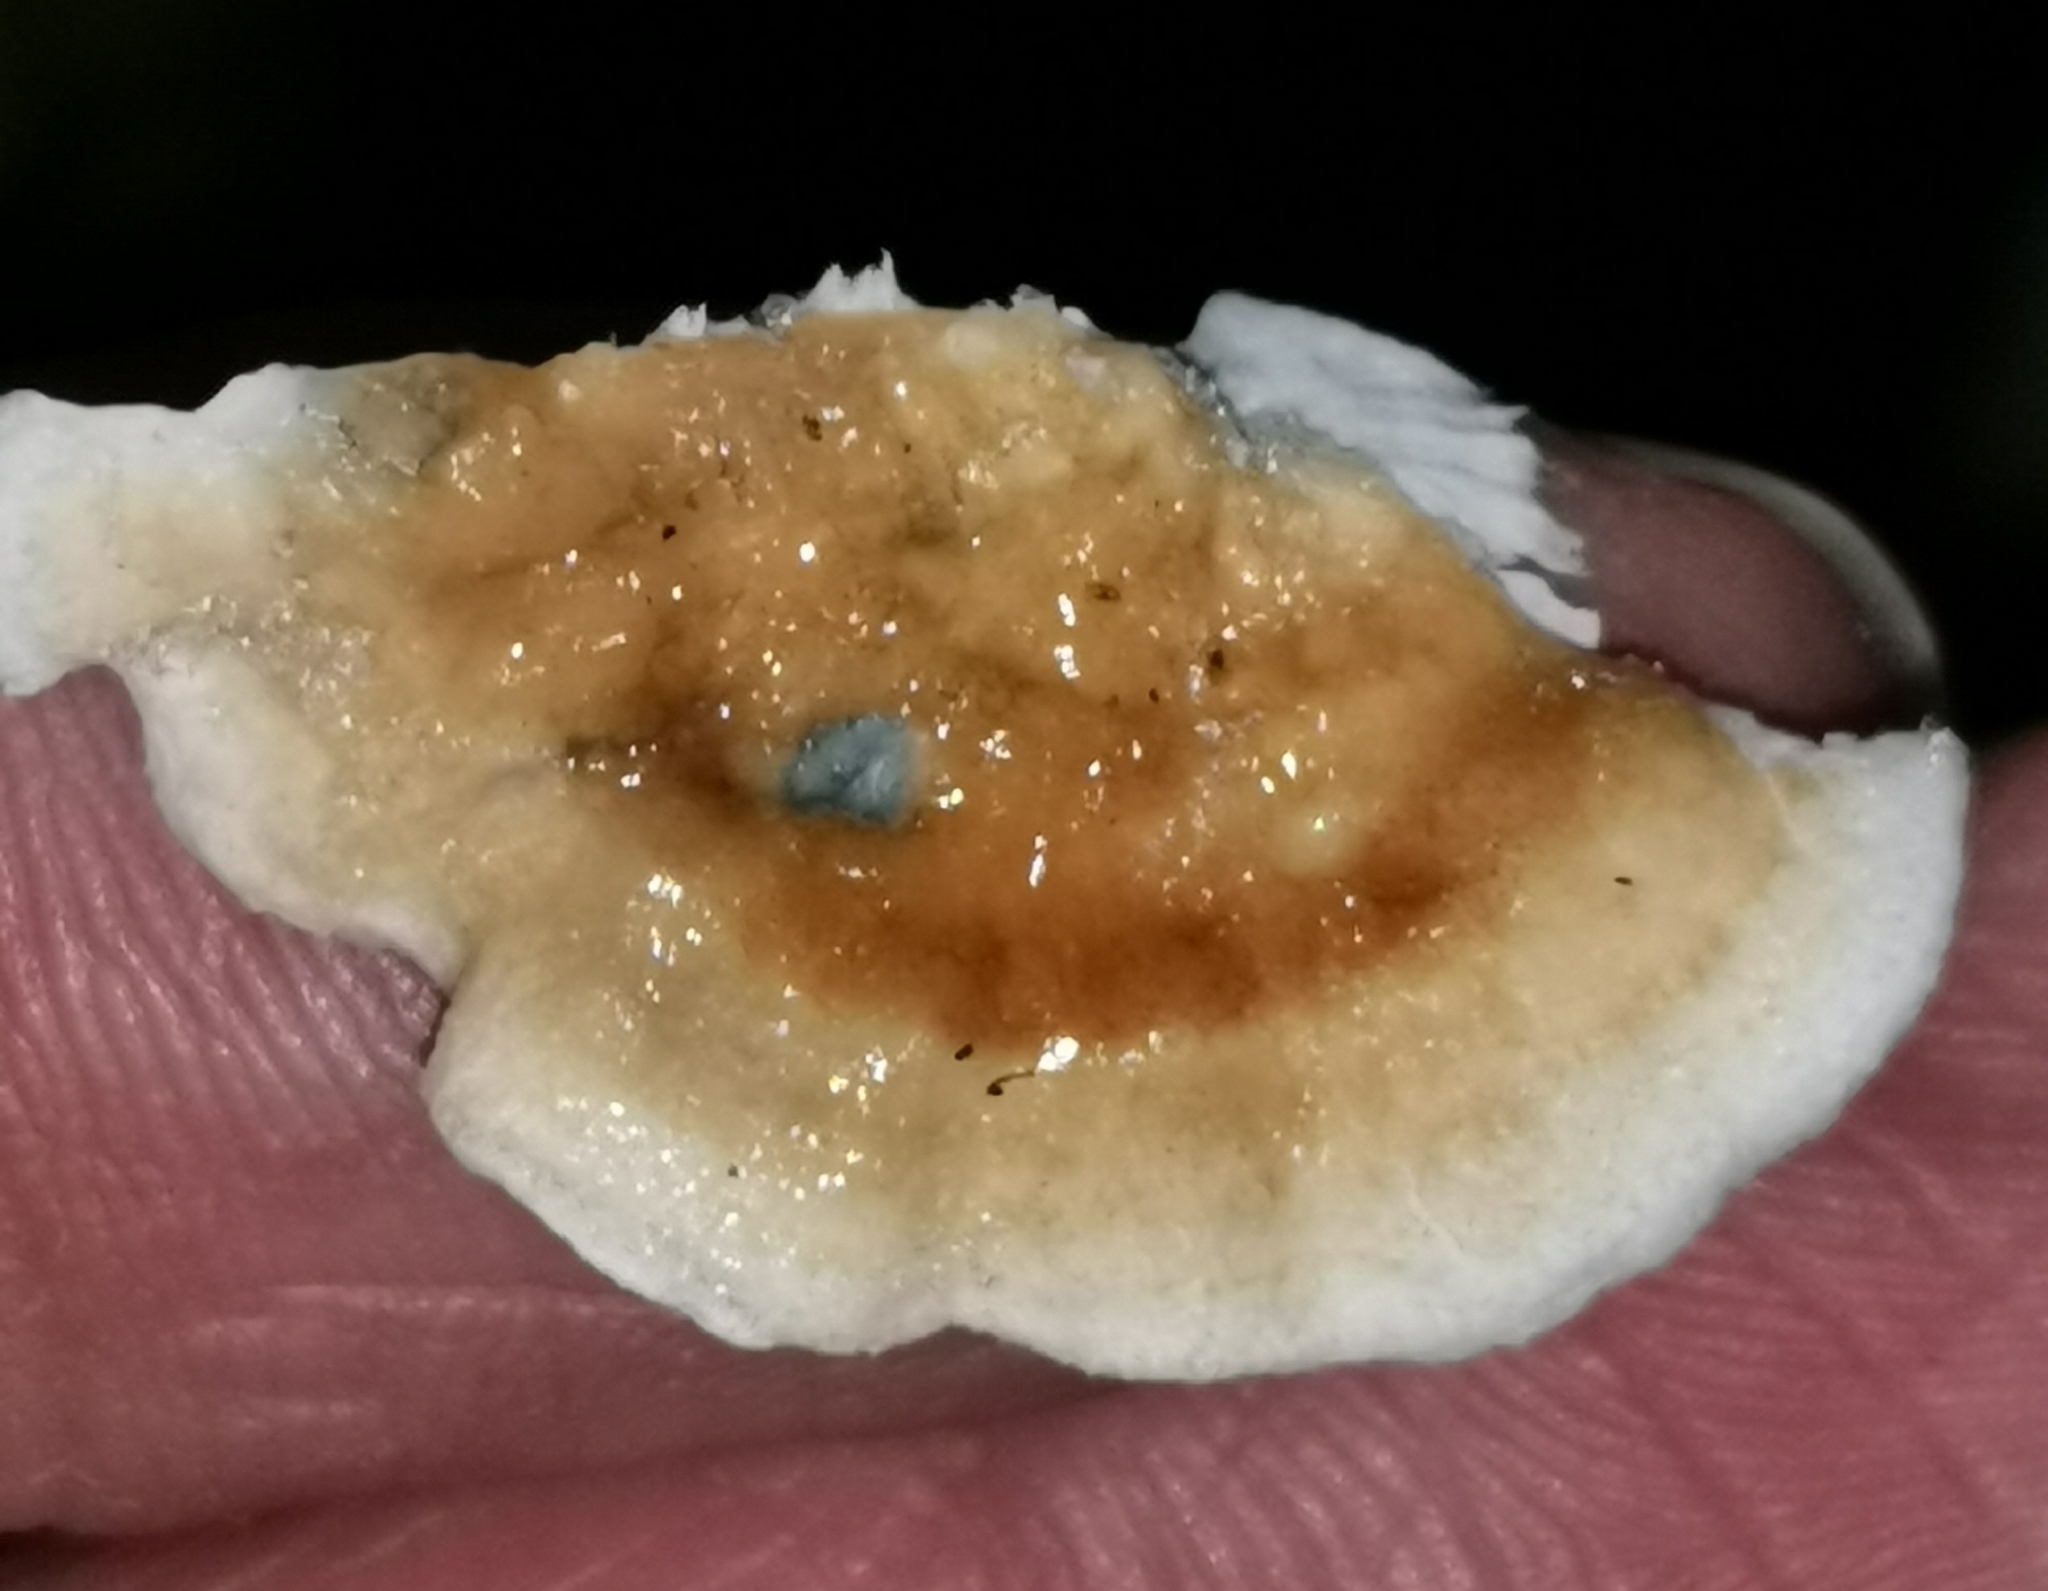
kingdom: Fungi
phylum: Basidiomycota
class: Agaricomycetes
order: Agaricales
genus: Plicatura
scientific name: Plicatura nivea
